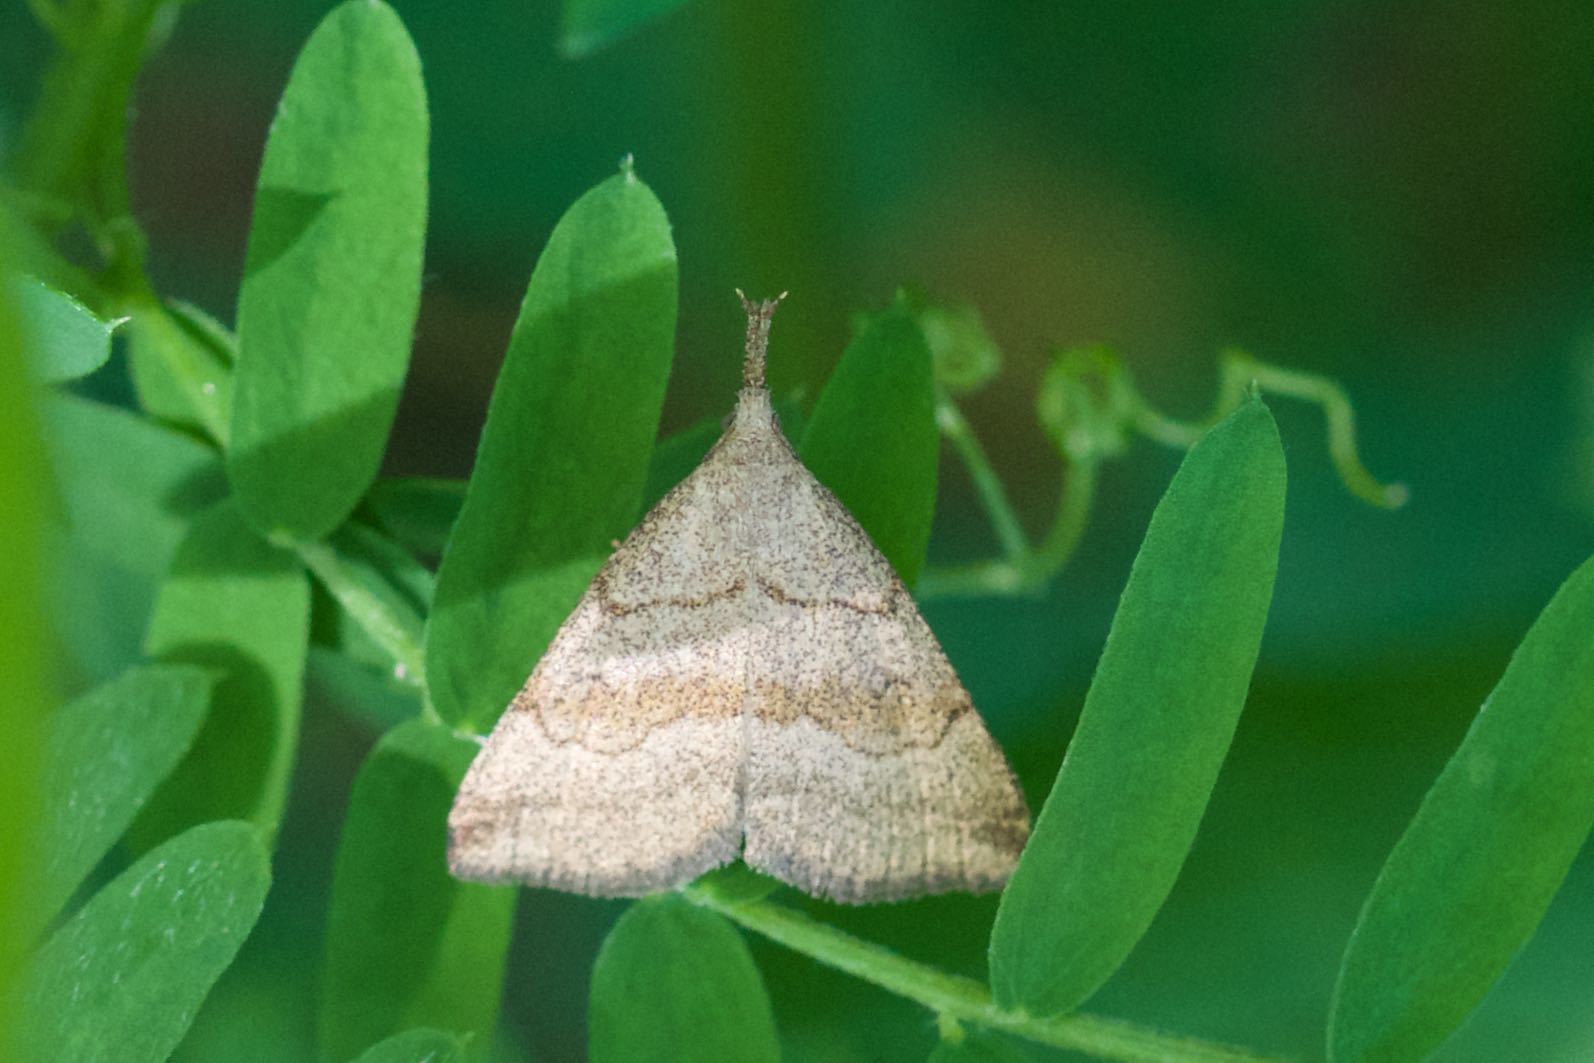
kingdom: Animalia
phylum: Arthropoda
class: Insecta
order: Lepidoptera
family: Erebidae
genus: Phalaenostola
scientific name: Phalaenostola metonalis
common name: Pale phalaenostola moth
